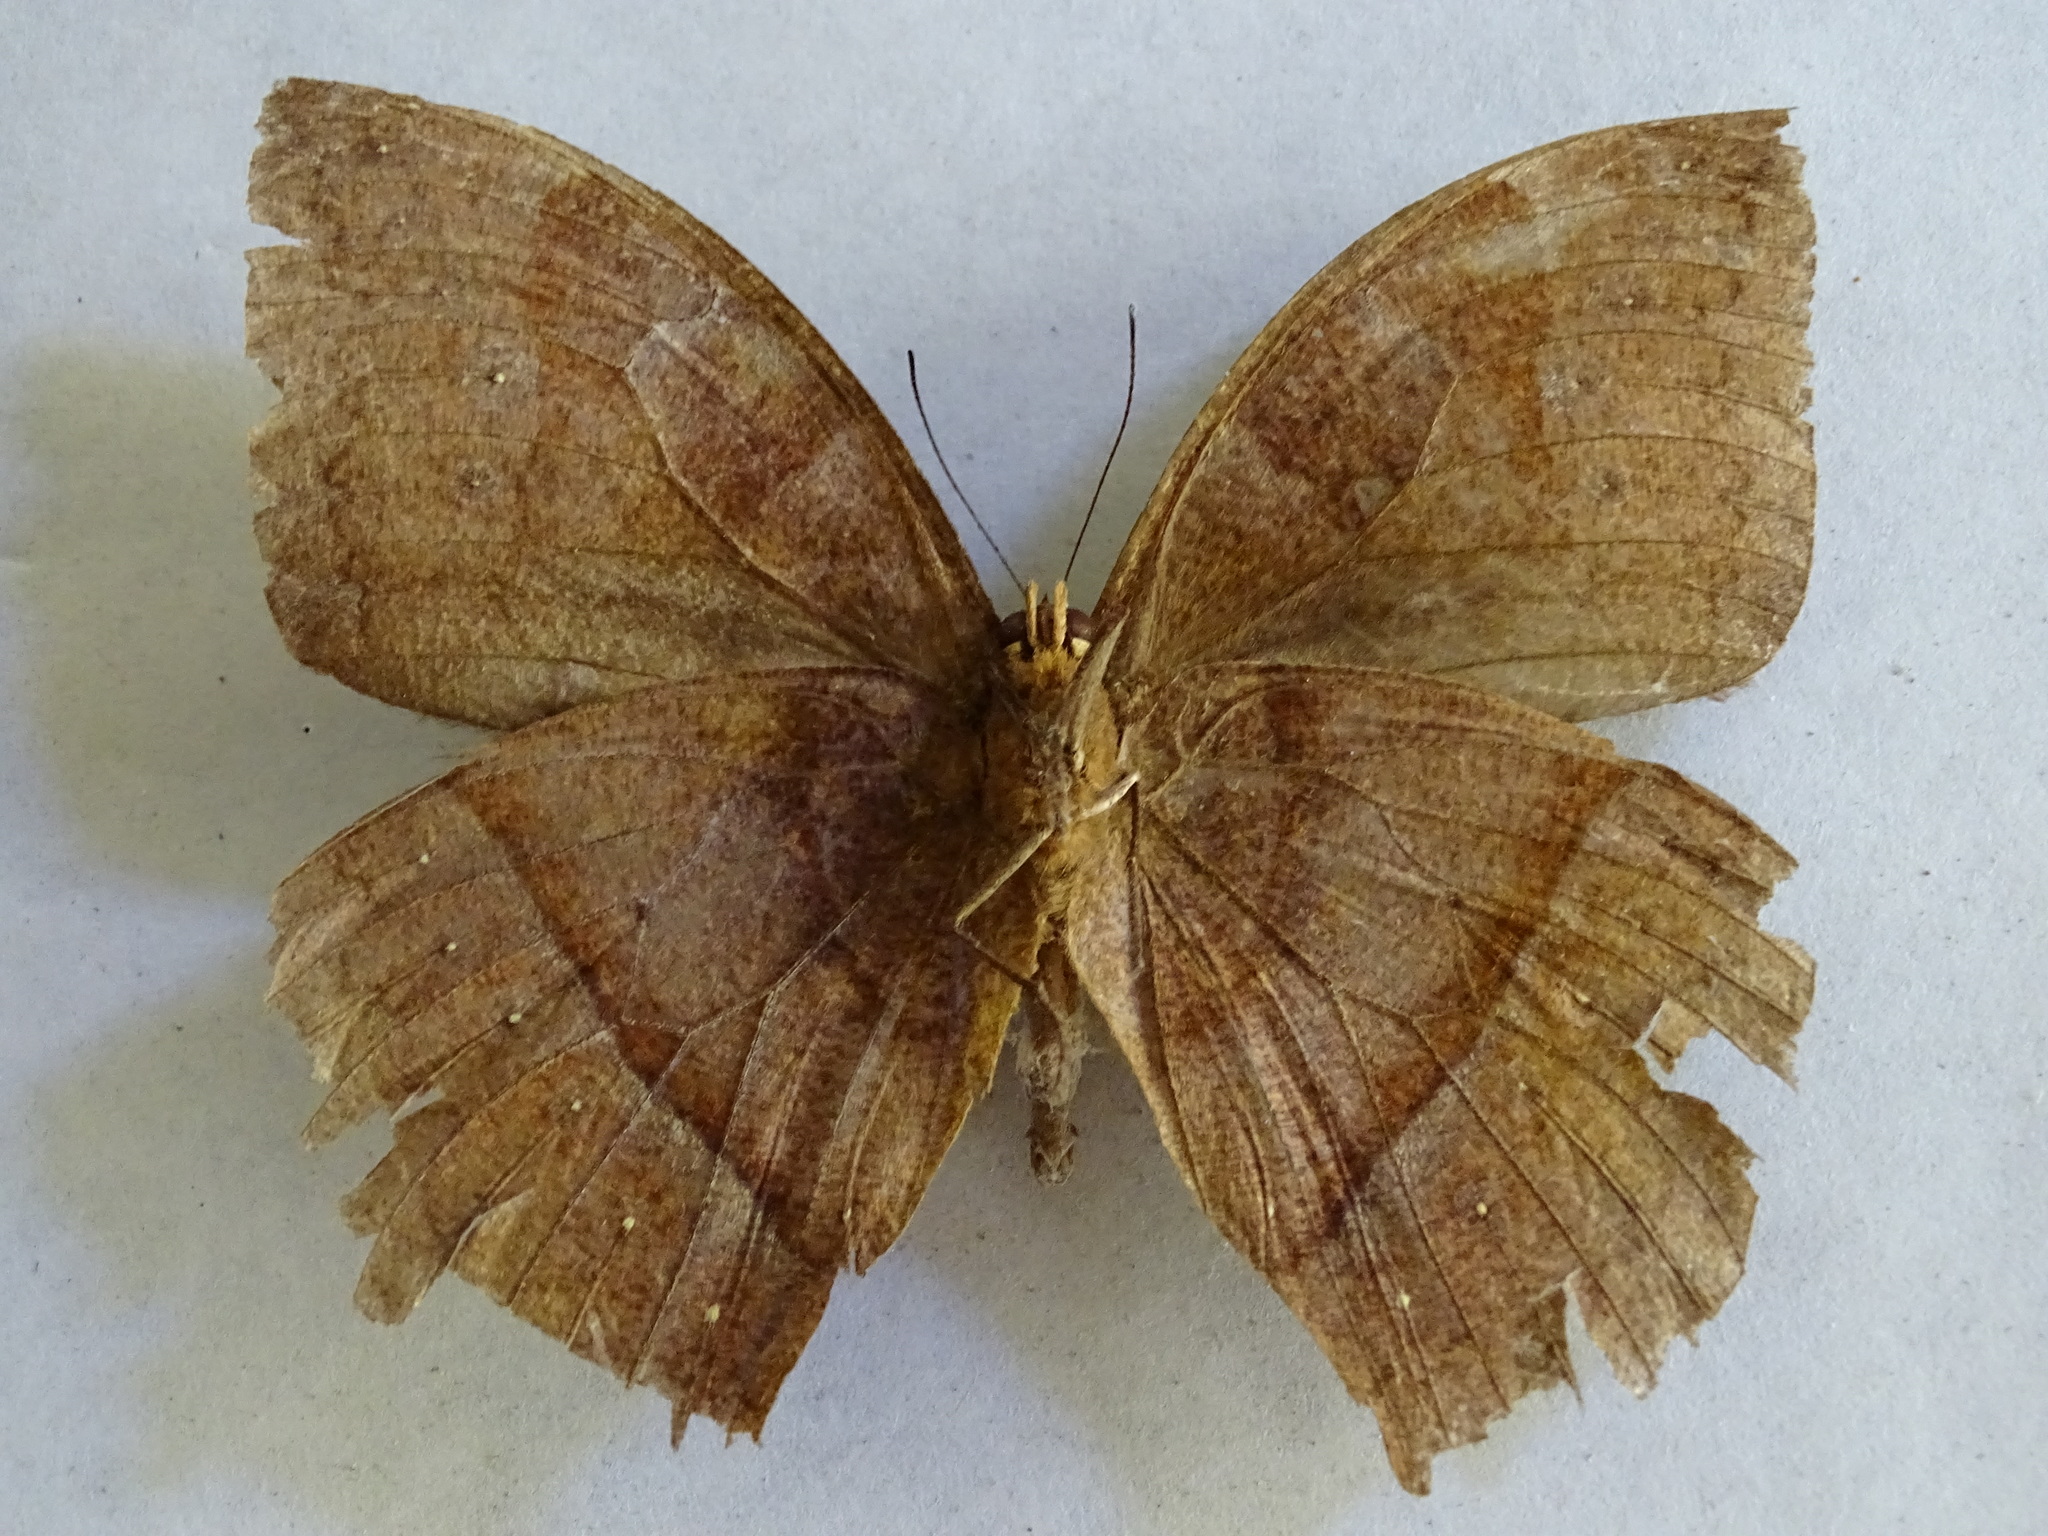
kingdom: Animalia
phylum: Arthropoda
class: Insecta
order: Lepidoptera
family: Nymphalidae
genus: Taygetis
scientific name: Taygetis mermeria
